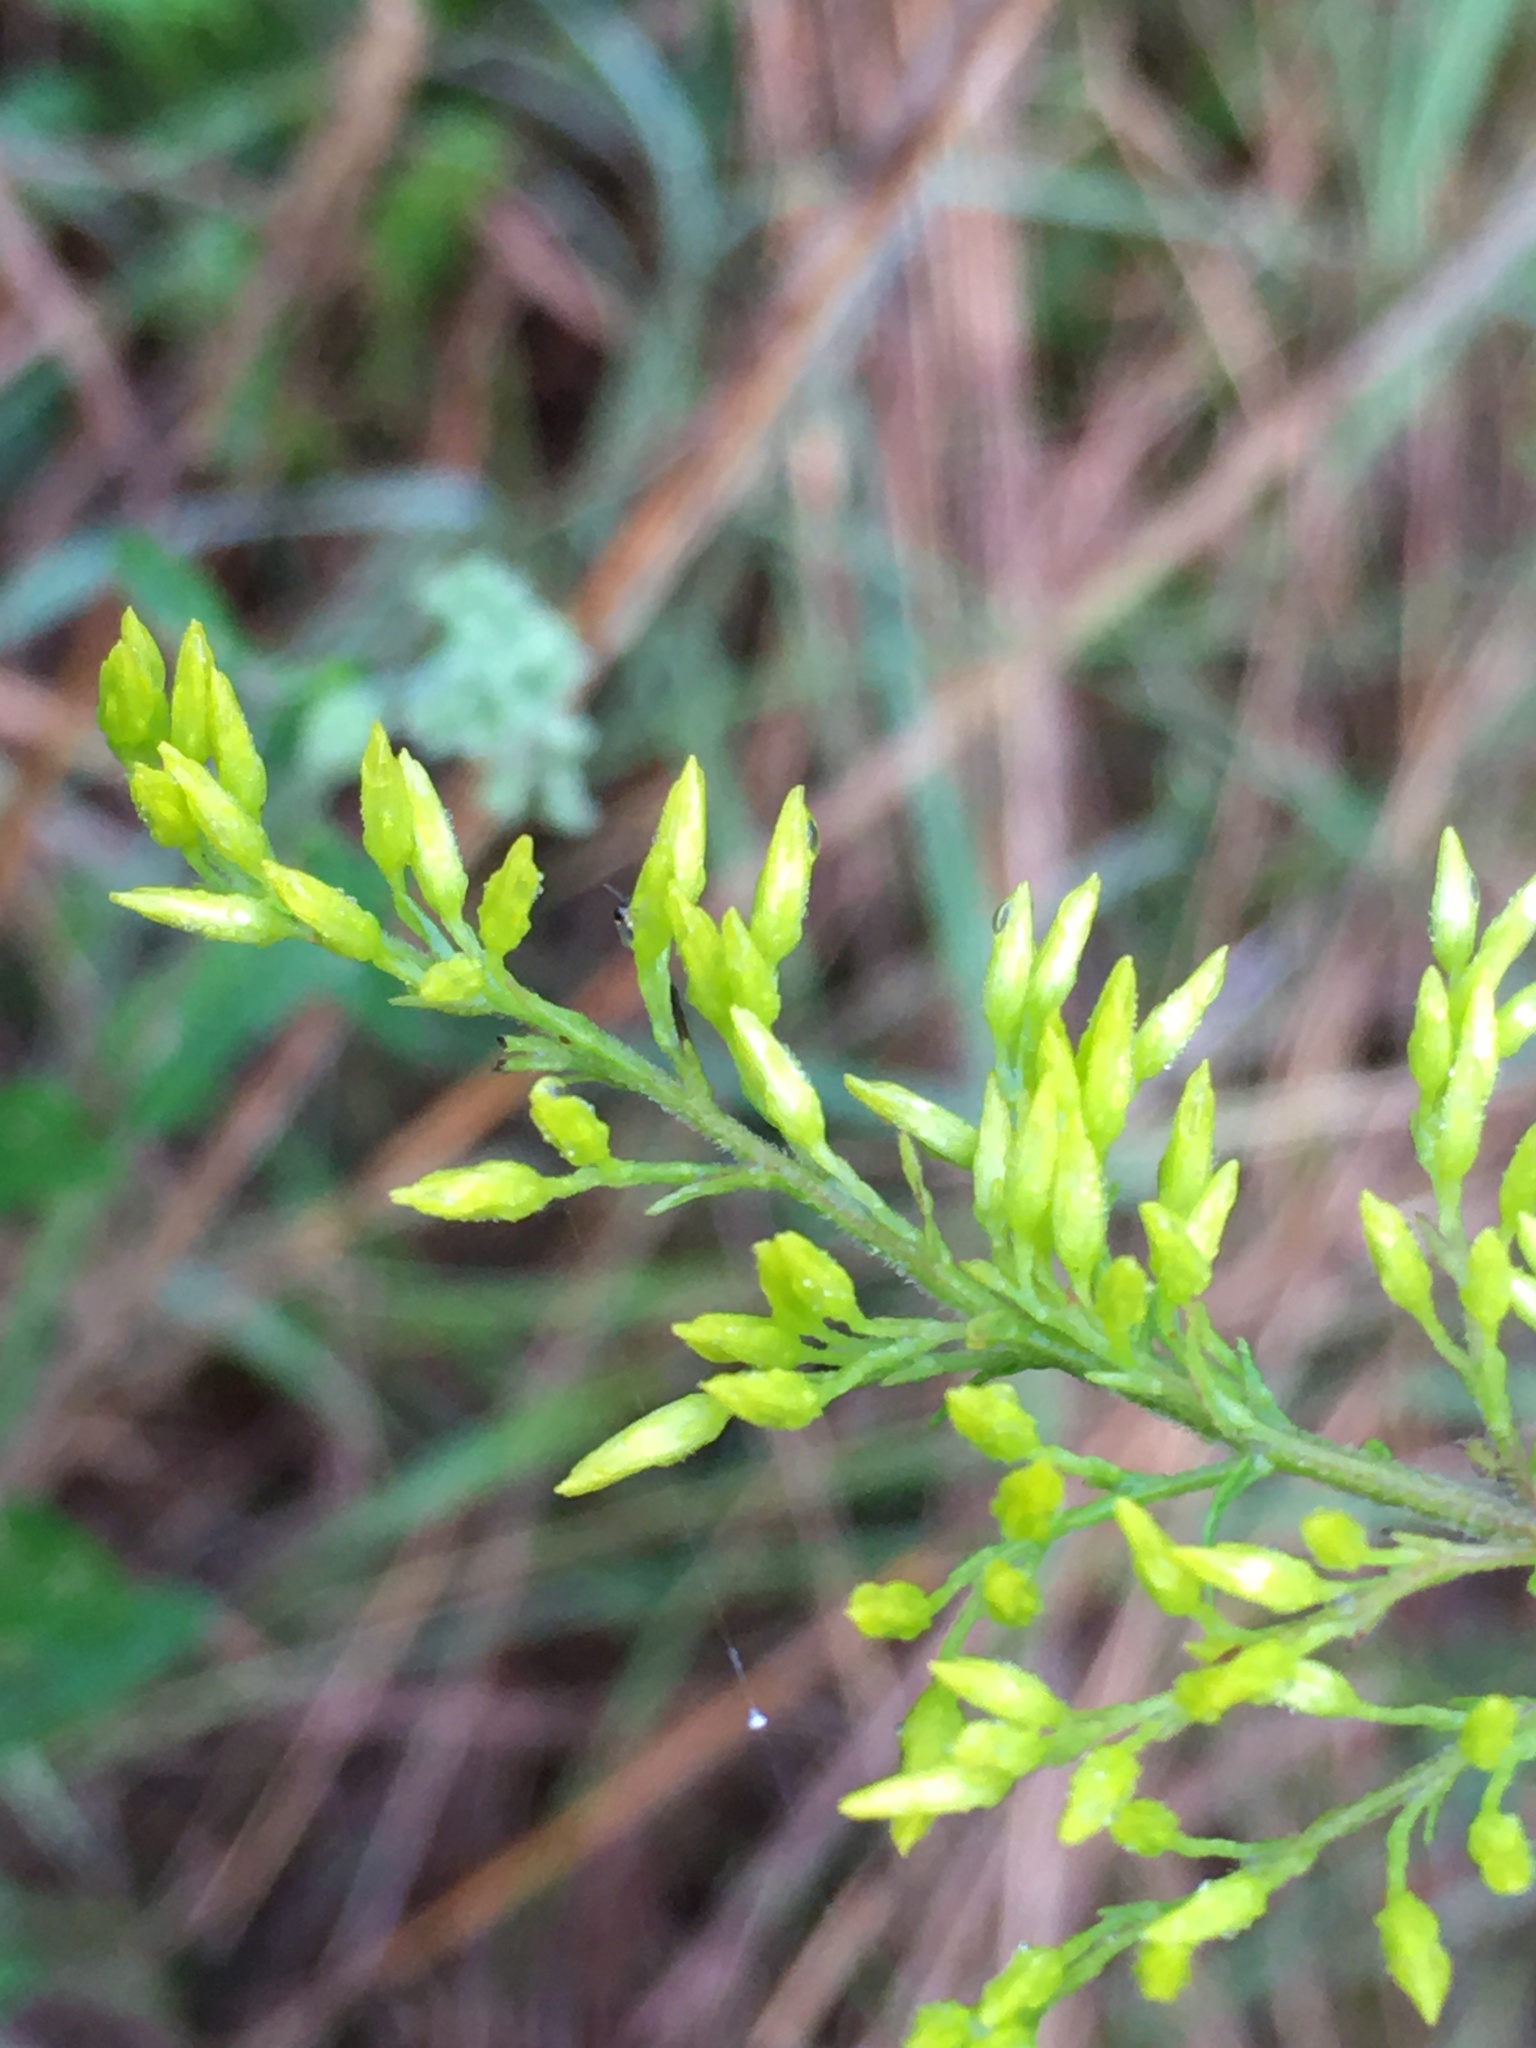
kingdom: Plantae
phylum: Tracheophyta
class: Magnoliopsida
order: Asterales
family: Asteraceae
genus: Solidago
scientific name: Solidago odora
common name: Anise-scented goldenrod
